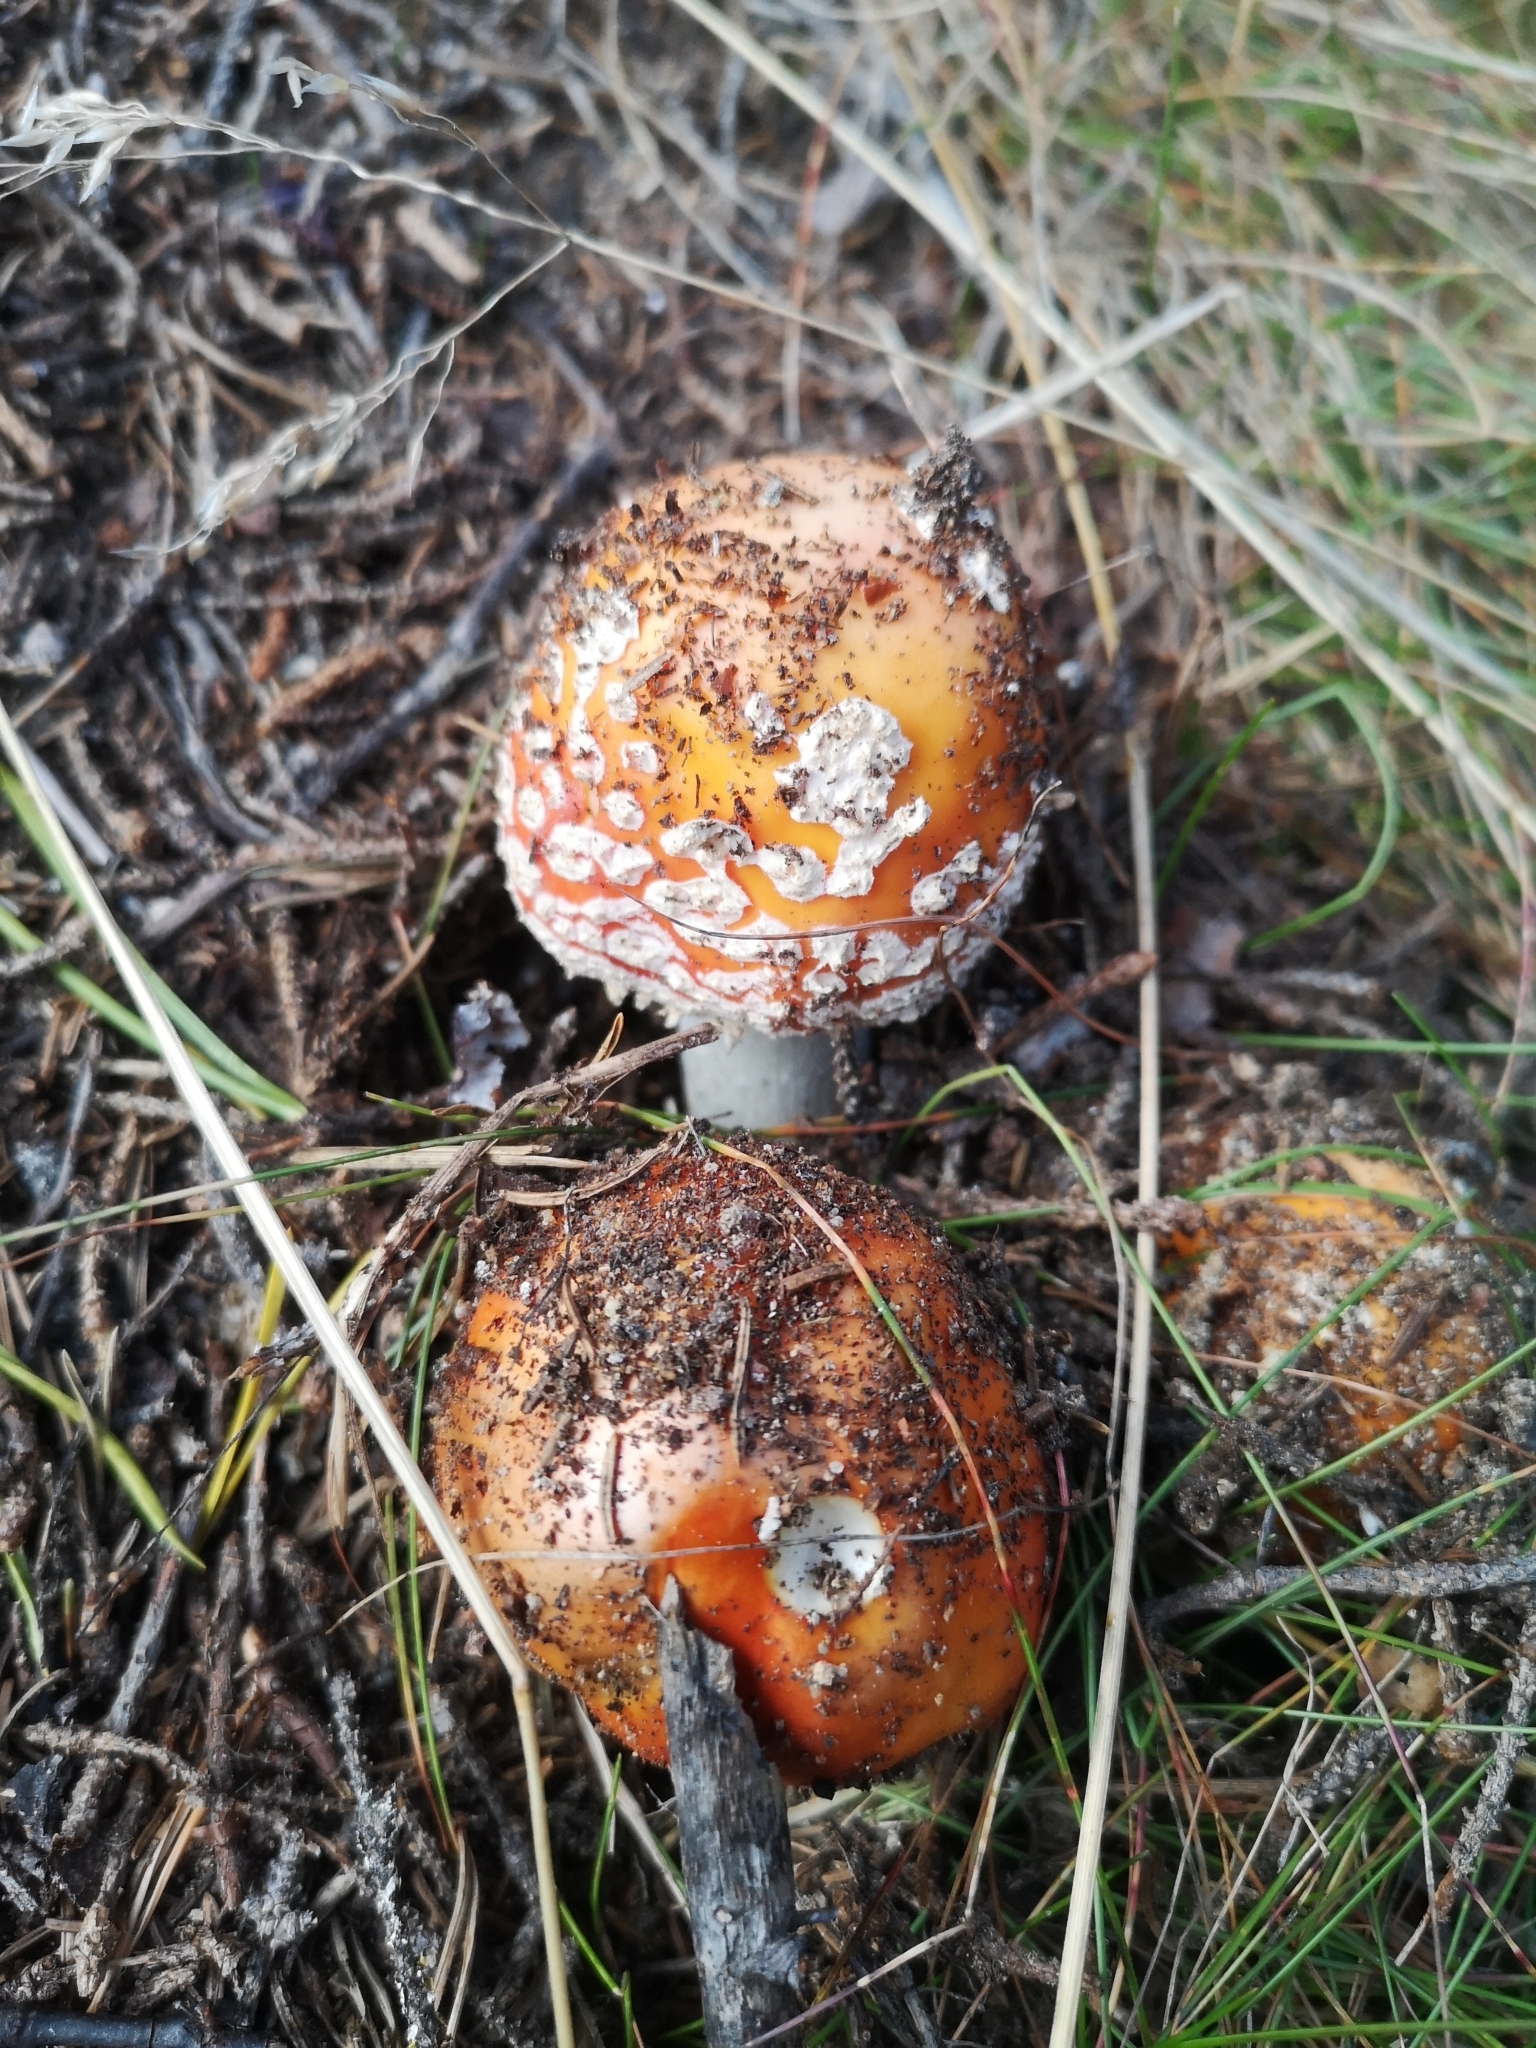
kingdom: Fungi
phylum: Basidiomycota
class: Agaricomycetes
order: Agaricales
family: Amanitaceae
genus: Amanita
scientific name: Amanita muscaria
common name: Fly agaric
